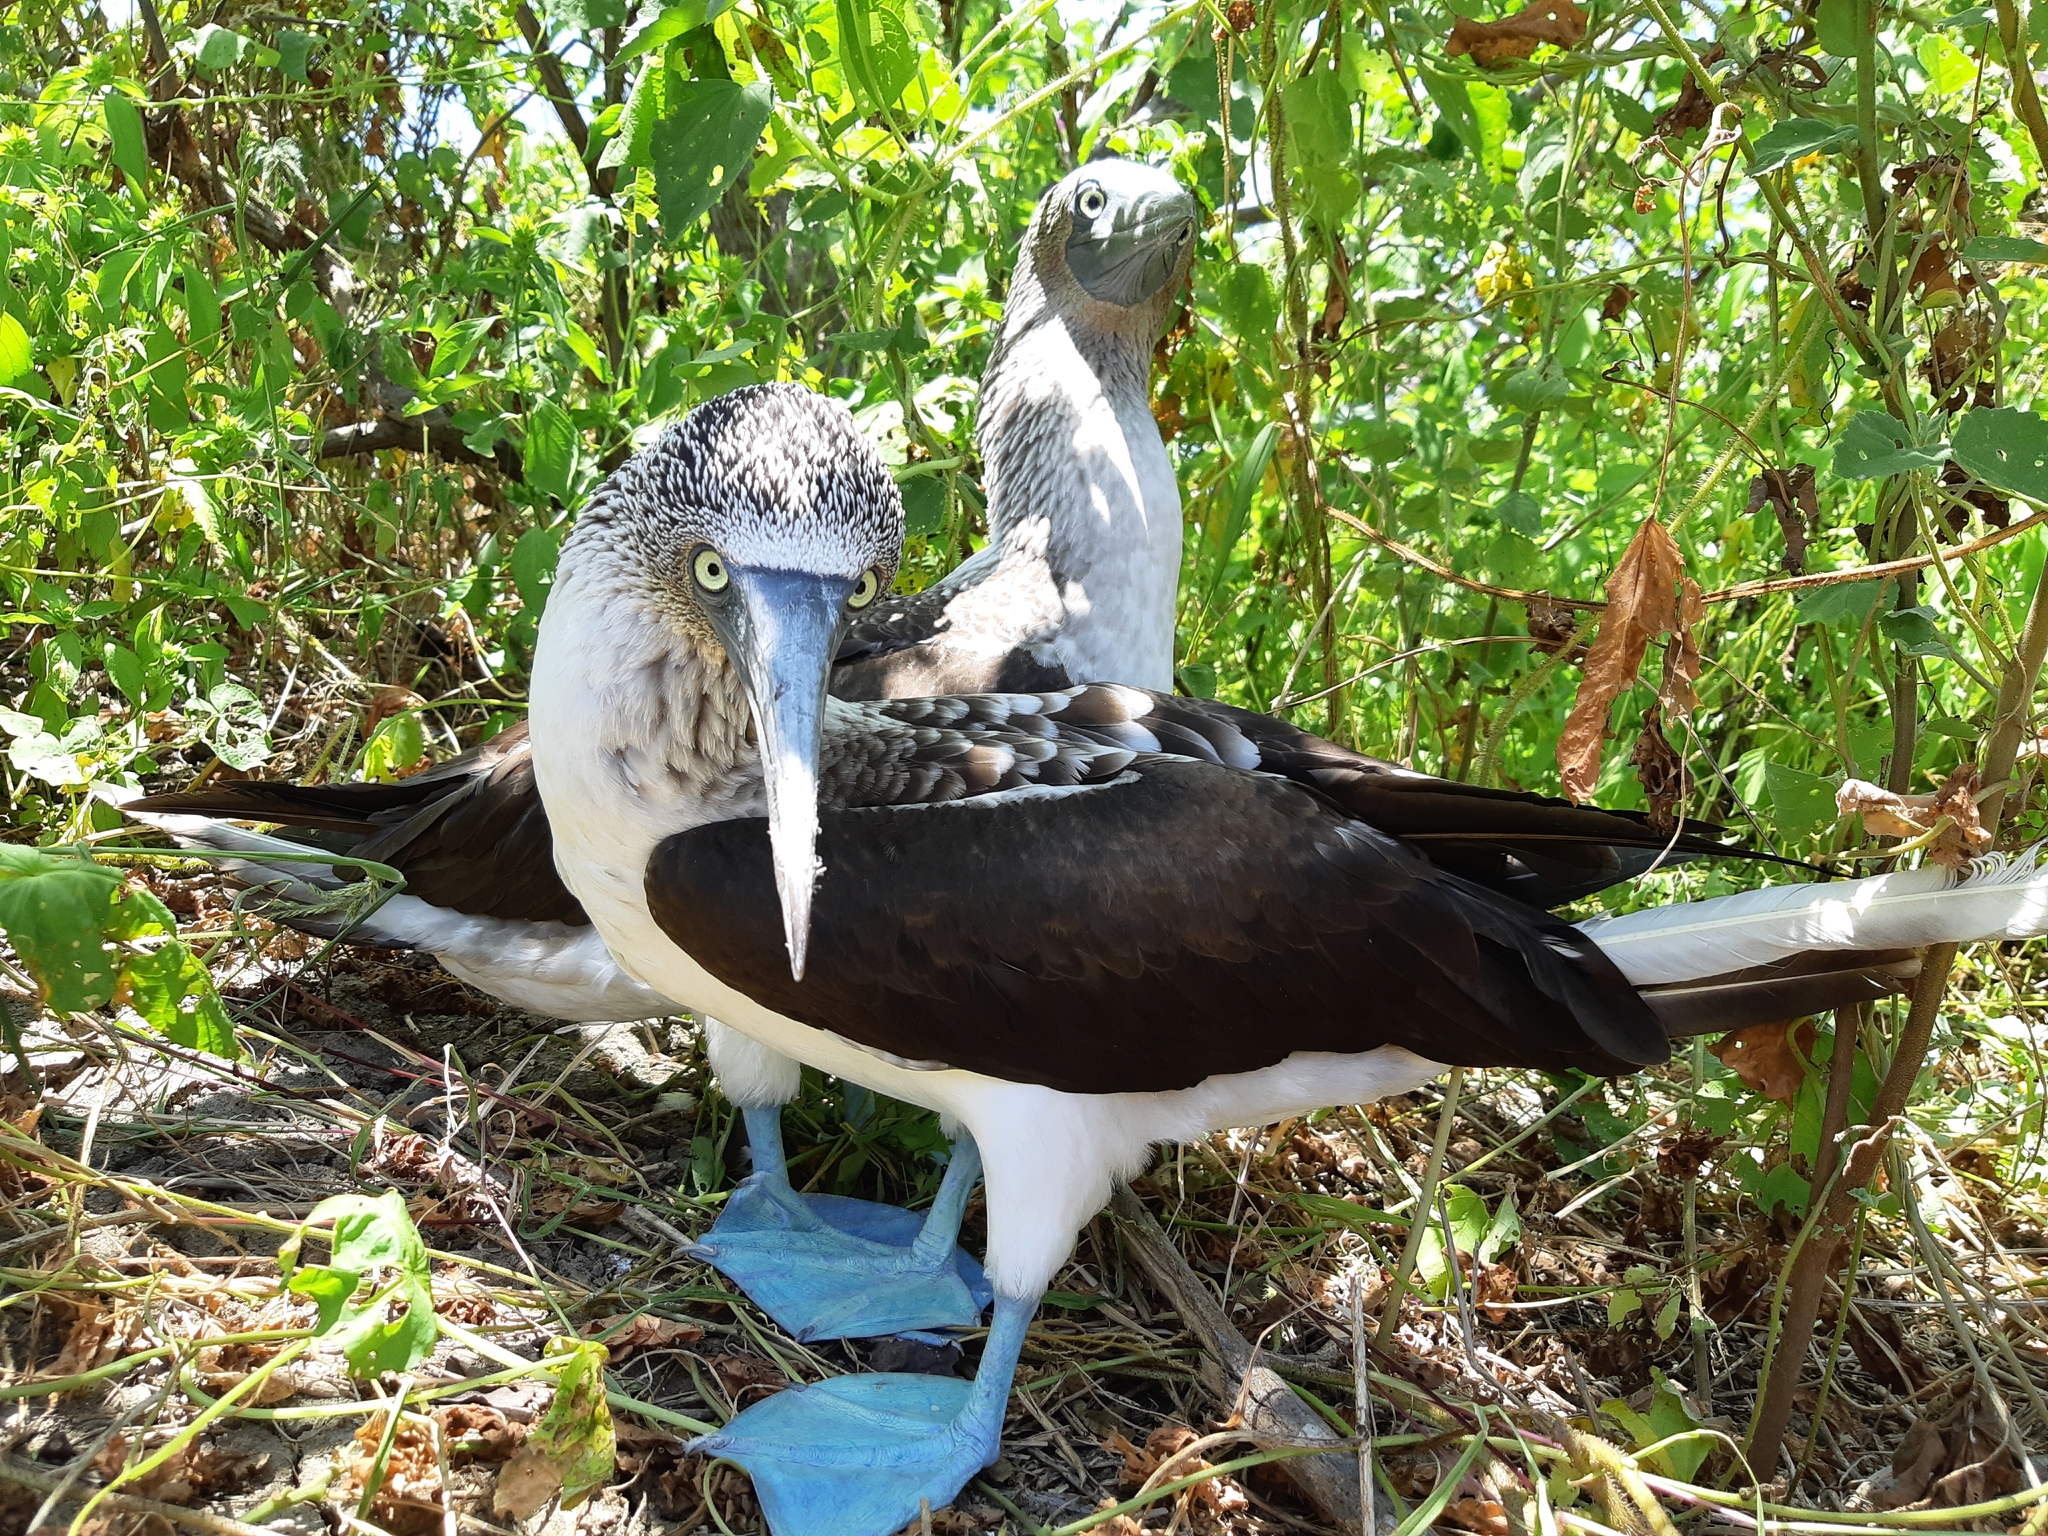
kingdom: Animalia
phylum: Chordata
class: Aves
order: Suliformes
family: Sulidae
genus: Sula
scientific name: Sula nebouxii
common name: Blue-footed booby
